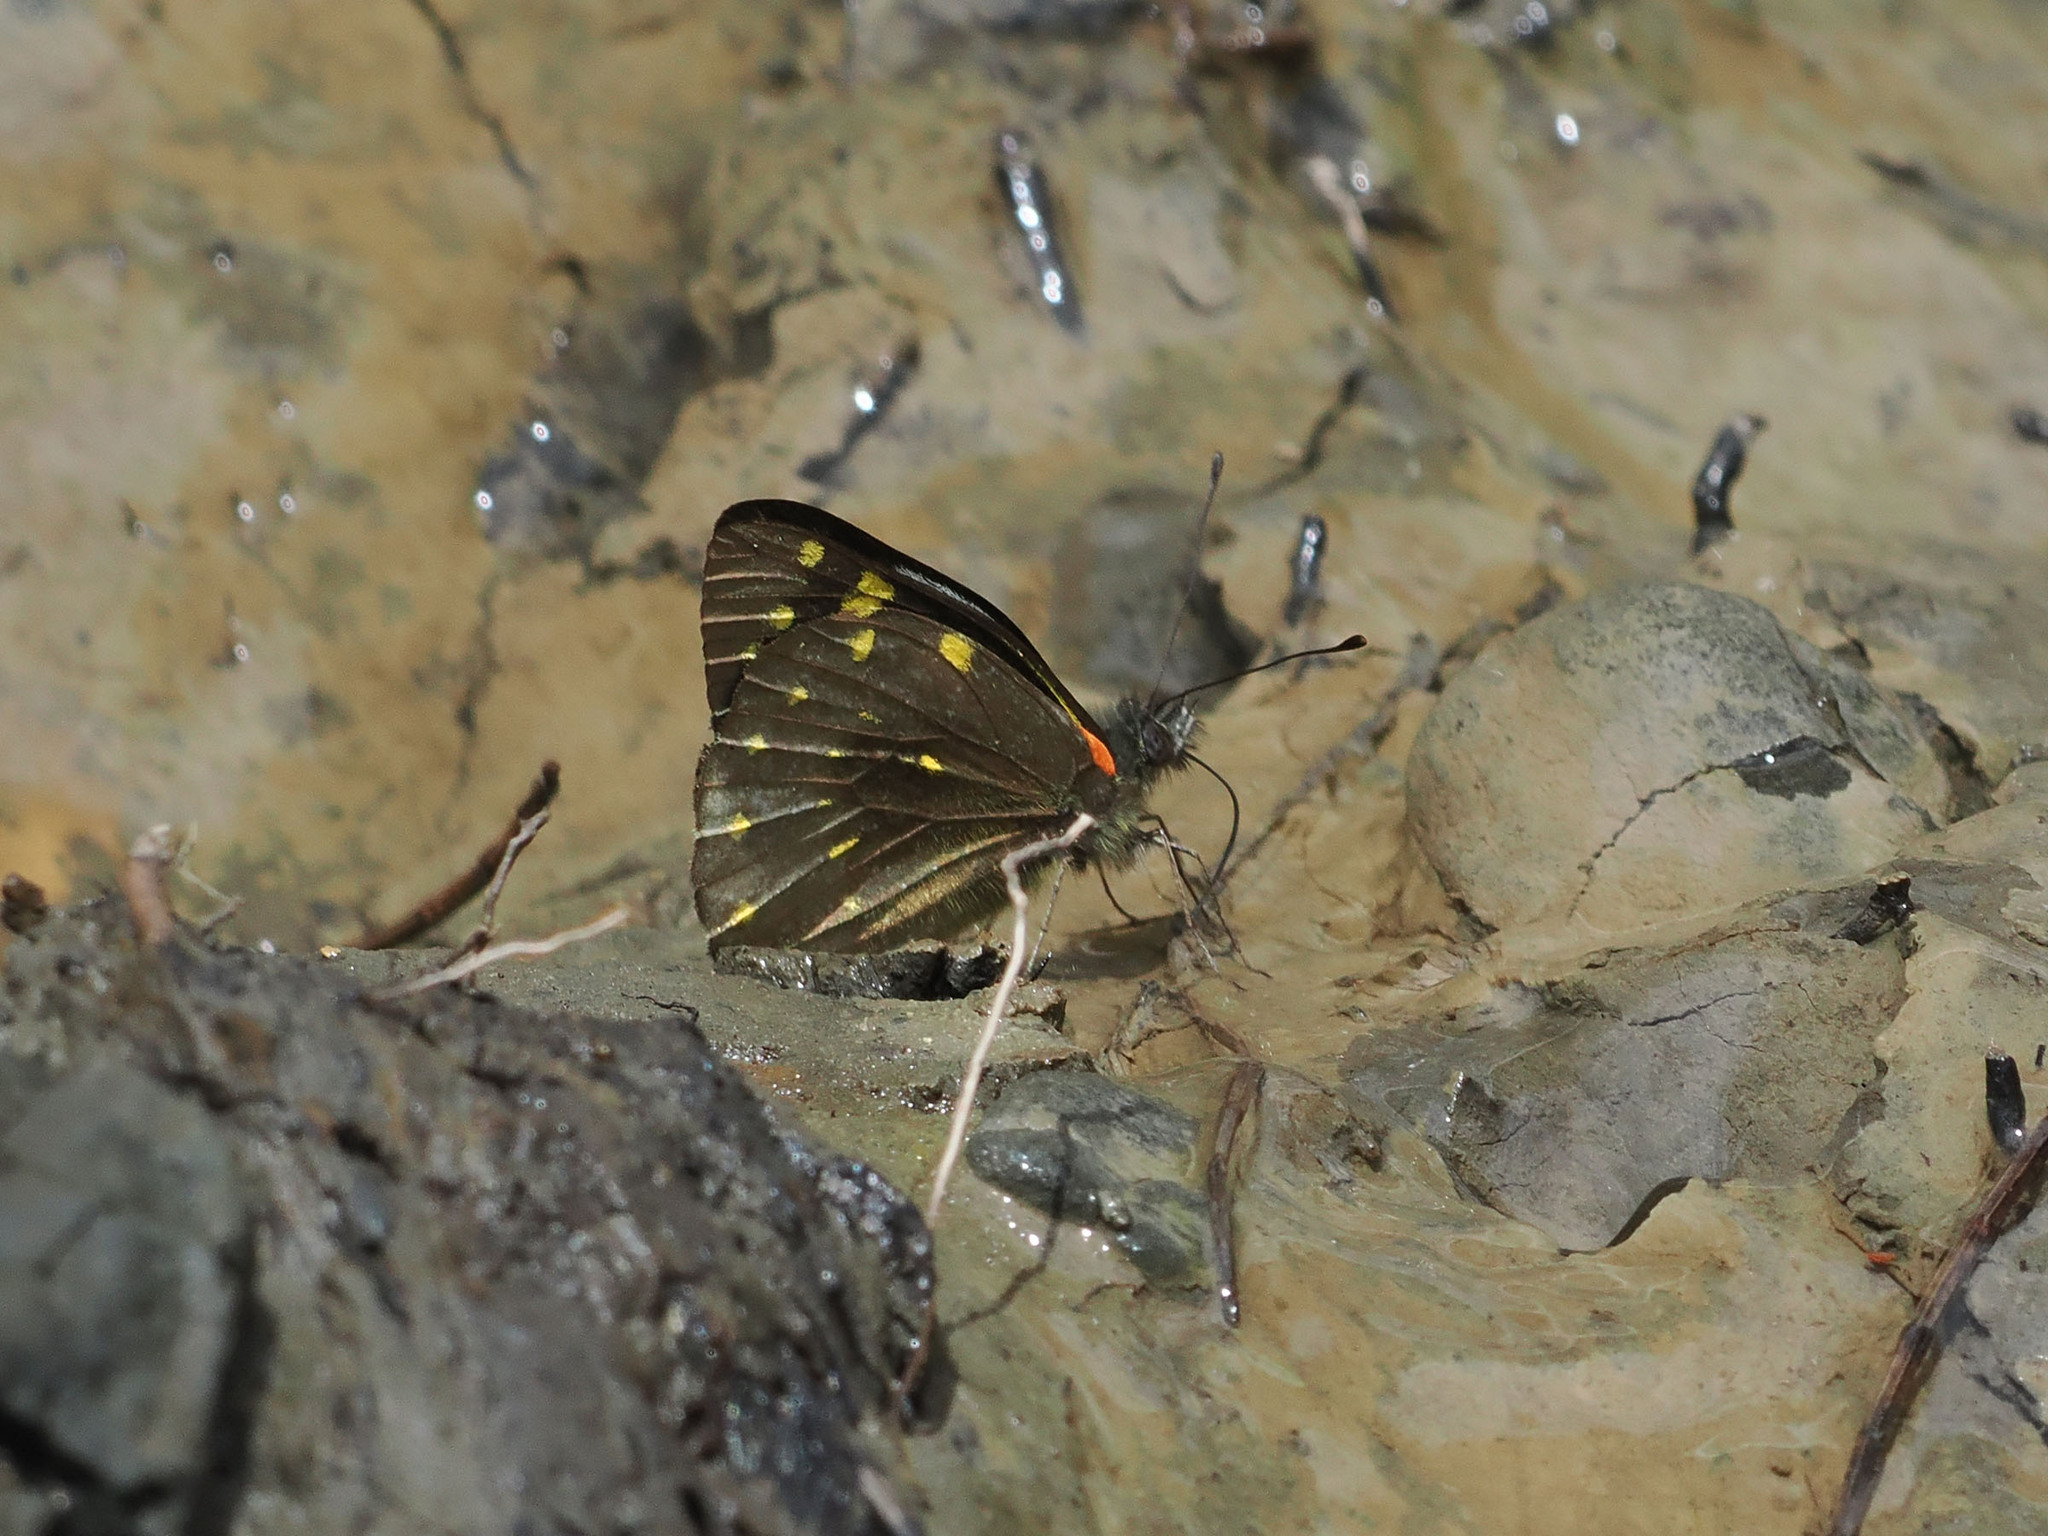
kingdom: Animalia
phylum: Arthropoda
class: Insecta
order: Lepidoptera
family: Pieridae
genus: Delias
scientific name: Delias microsticha
